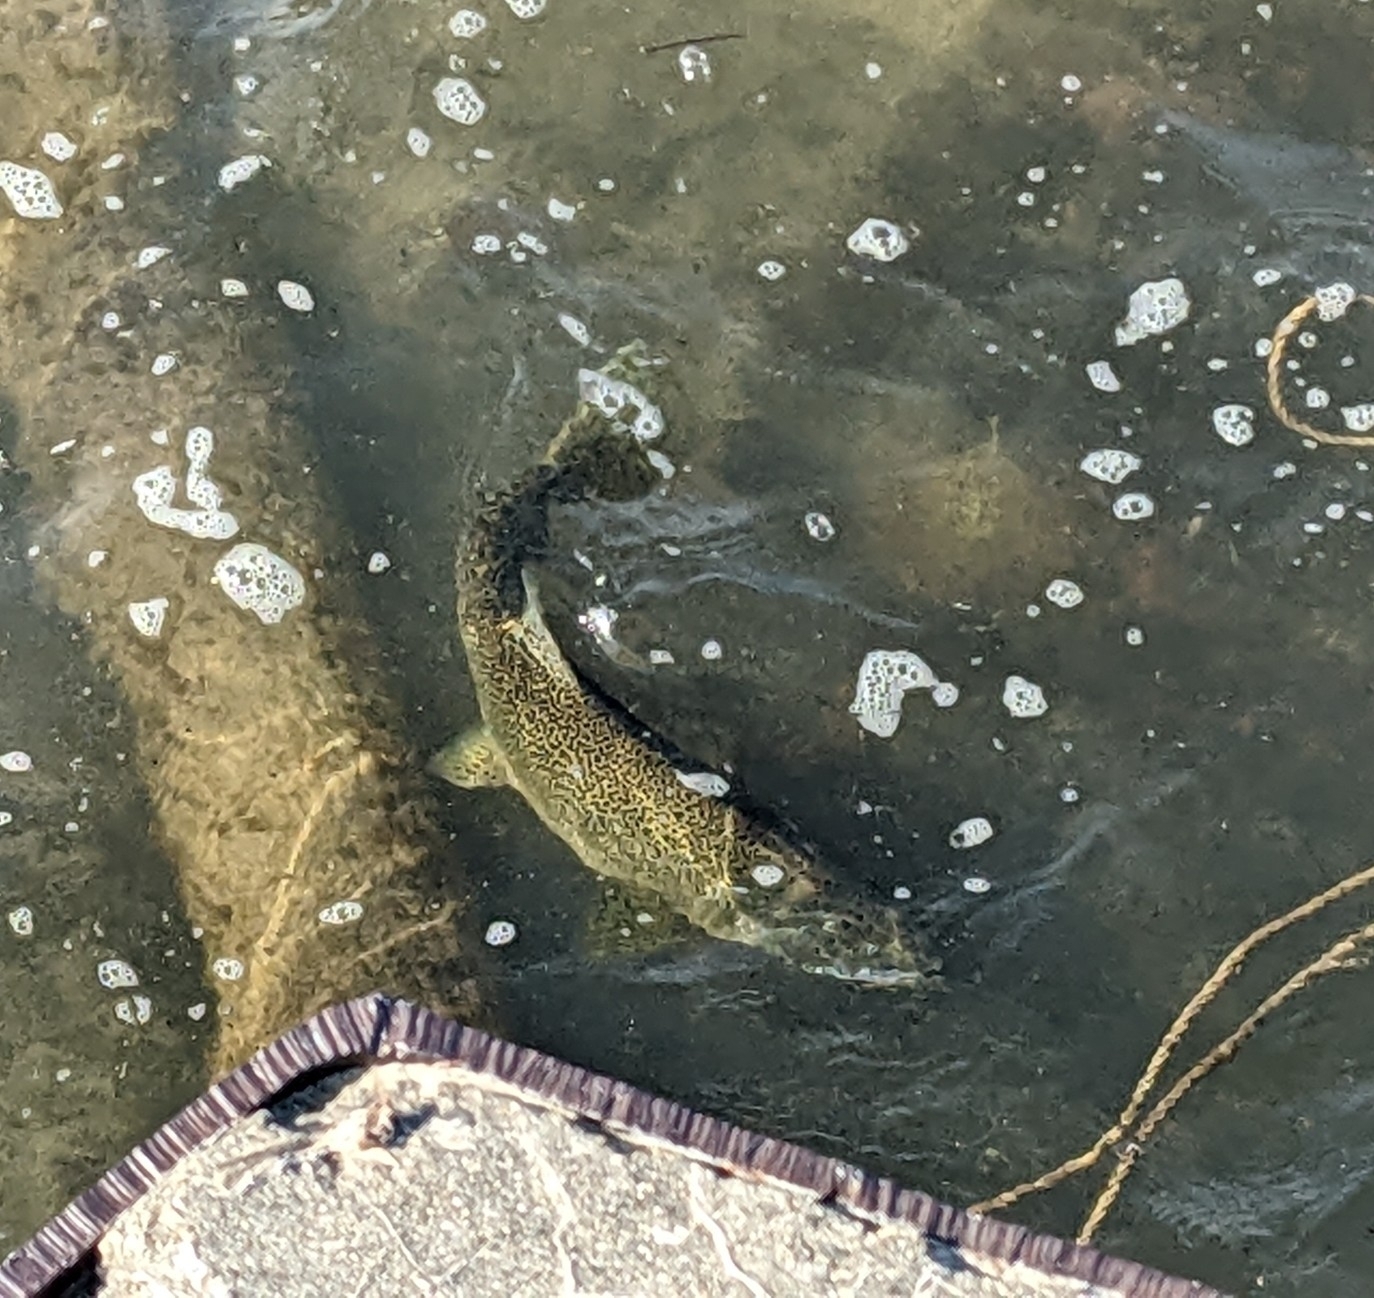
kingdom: Animalia
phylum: Chordata
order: Salmoniformes
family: Salmonidae
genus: Oncorhynchus
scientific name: Oncorhynchus tshawytscha
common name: Chinook salmon
